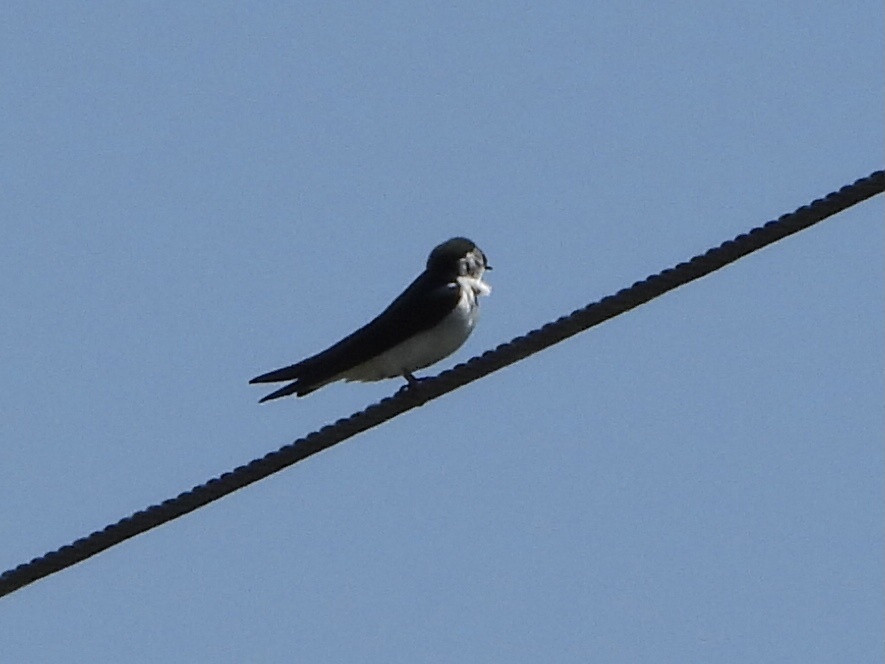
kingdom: Animalia
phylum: Chordata
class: Aves
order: Passeriformes
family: Hirundinidae
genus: Tachycineta
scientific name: Tachycineta thalassina
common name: Violet-green swallow
